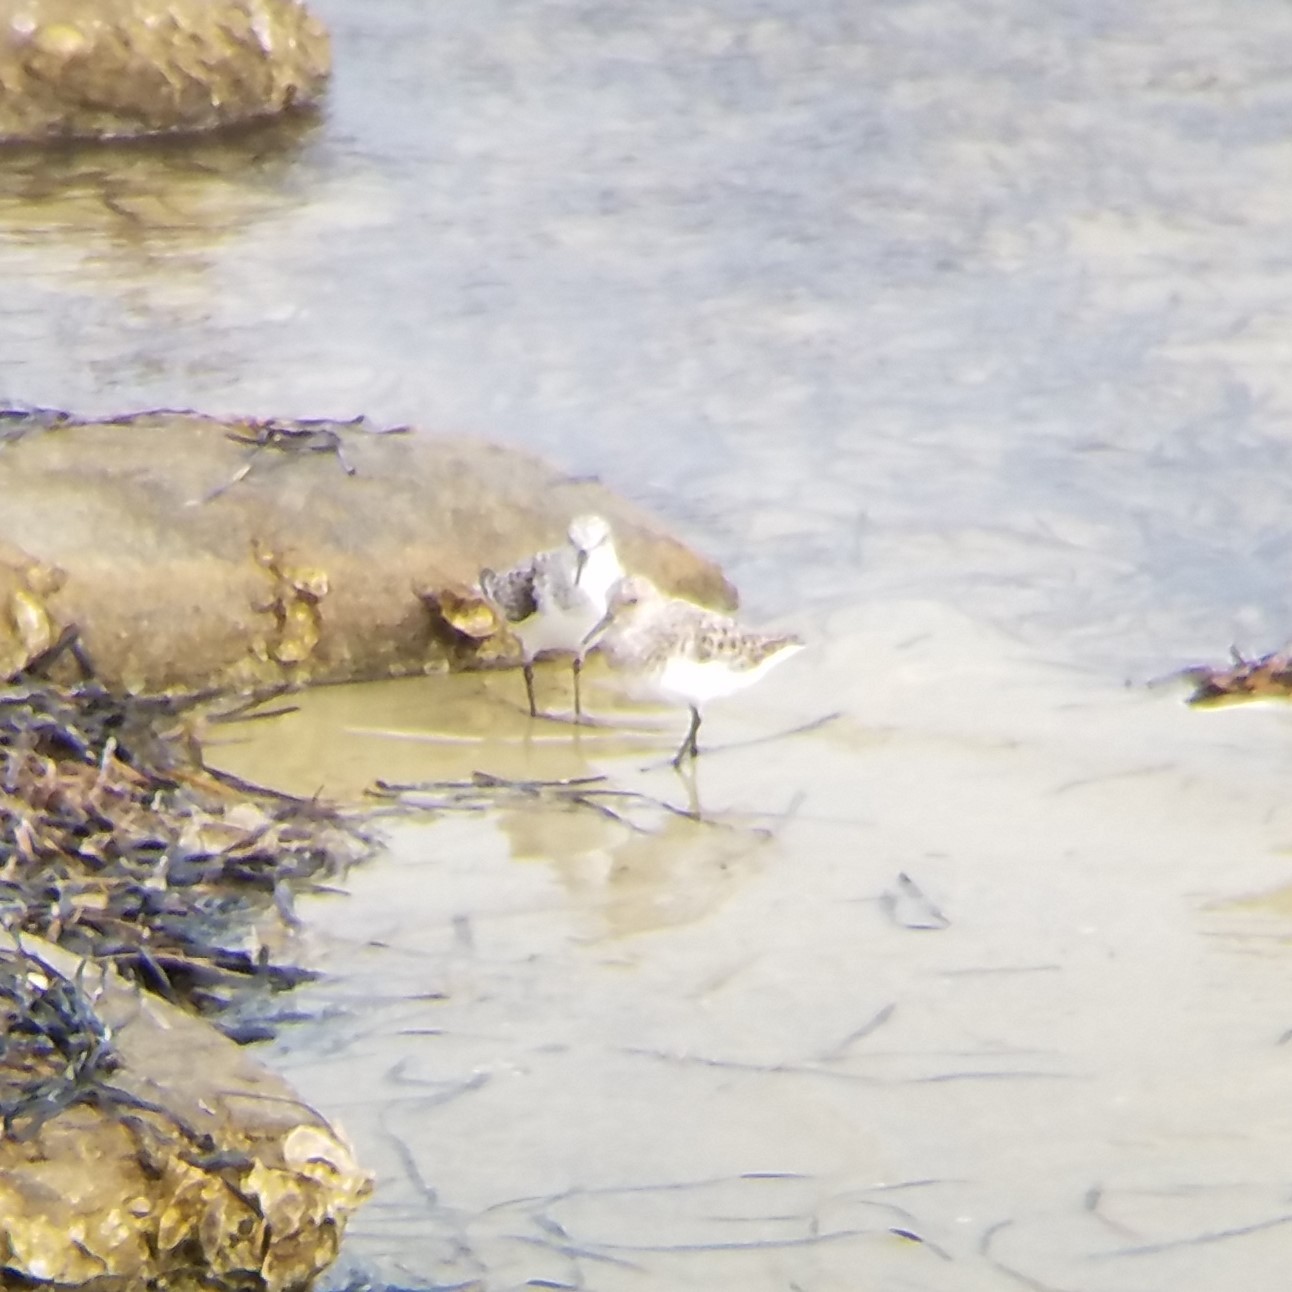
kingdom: Animalia
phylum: Chordata
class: Aves
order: Charadriiformes
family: Scolopacidae
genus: Calidris
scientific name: Calidris alba
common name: Sanderling
